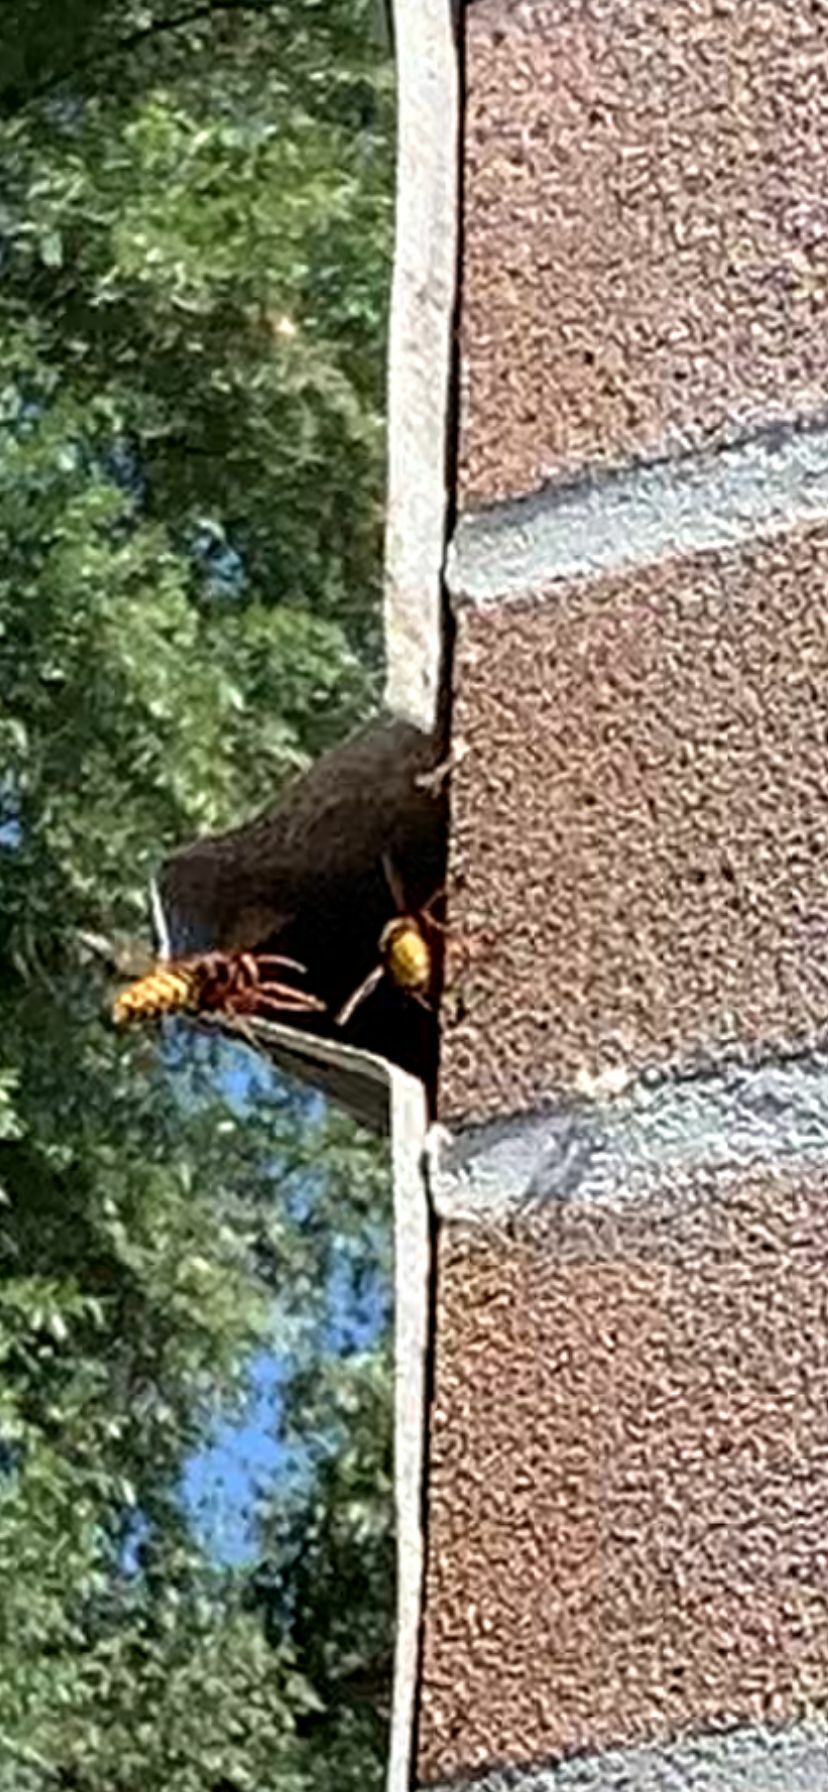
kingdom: Animalia
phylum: Arthropoda
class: Insecta
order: Hymenoptera
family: Vespidae
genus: Vespa
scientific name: Vespa crabro
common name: Hornet
